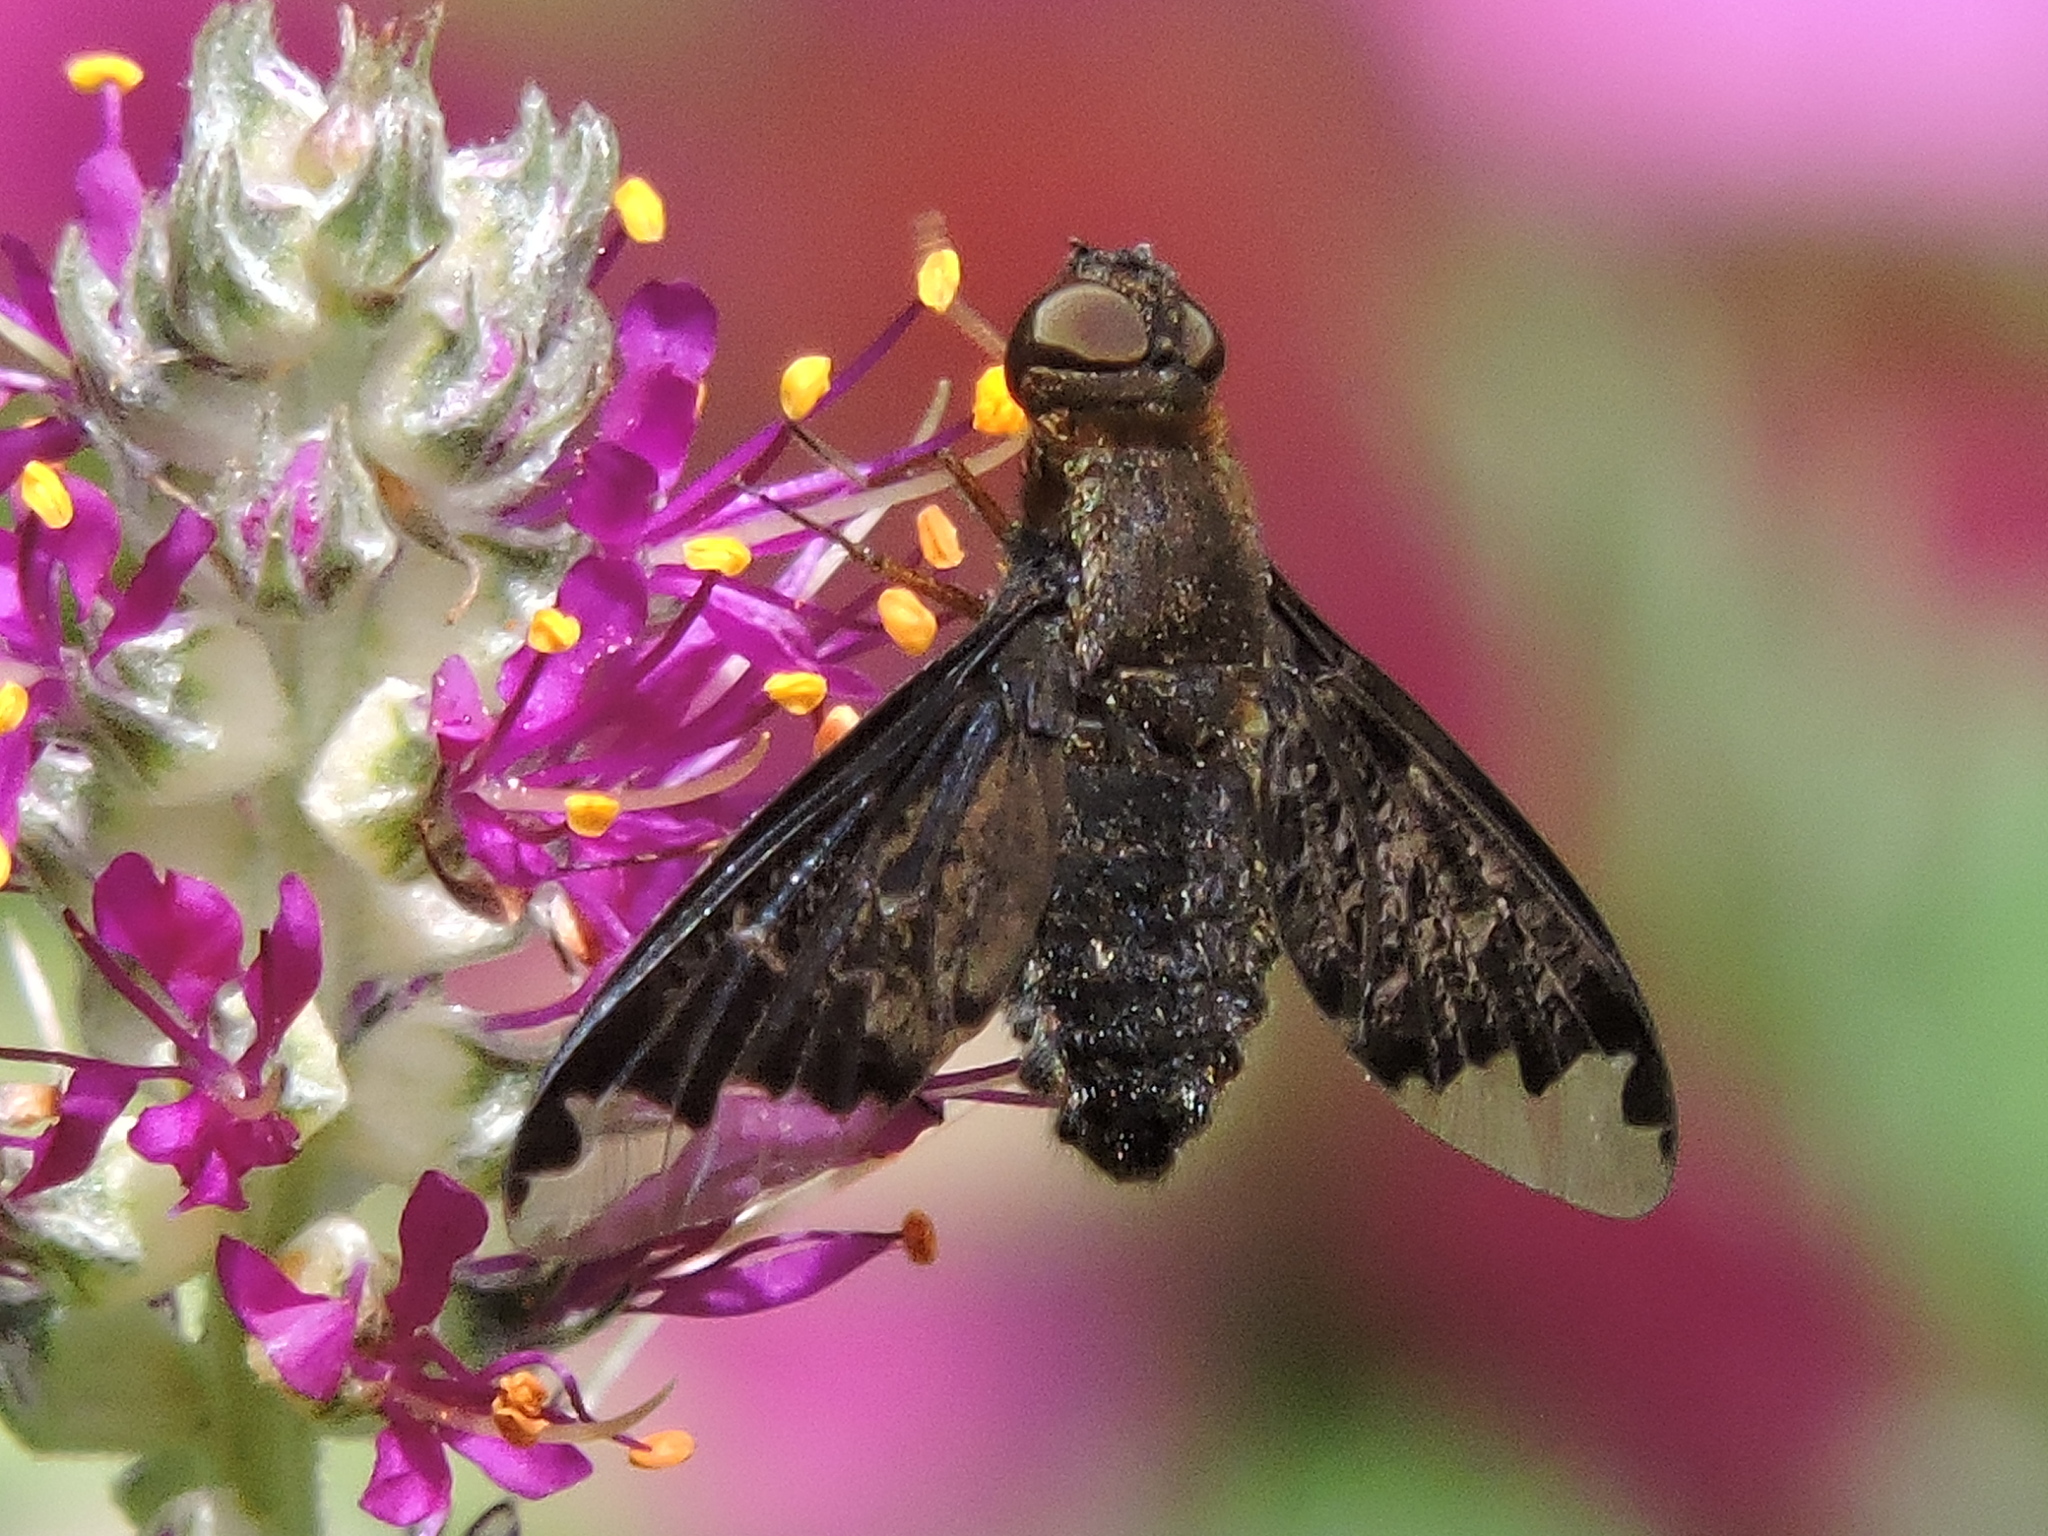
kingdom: Animalia
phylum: Arthropoda
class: Insecta
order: Diptera
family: Bombyliidae
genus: Hemipenthes
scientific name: Hemipenthes sinuosus
